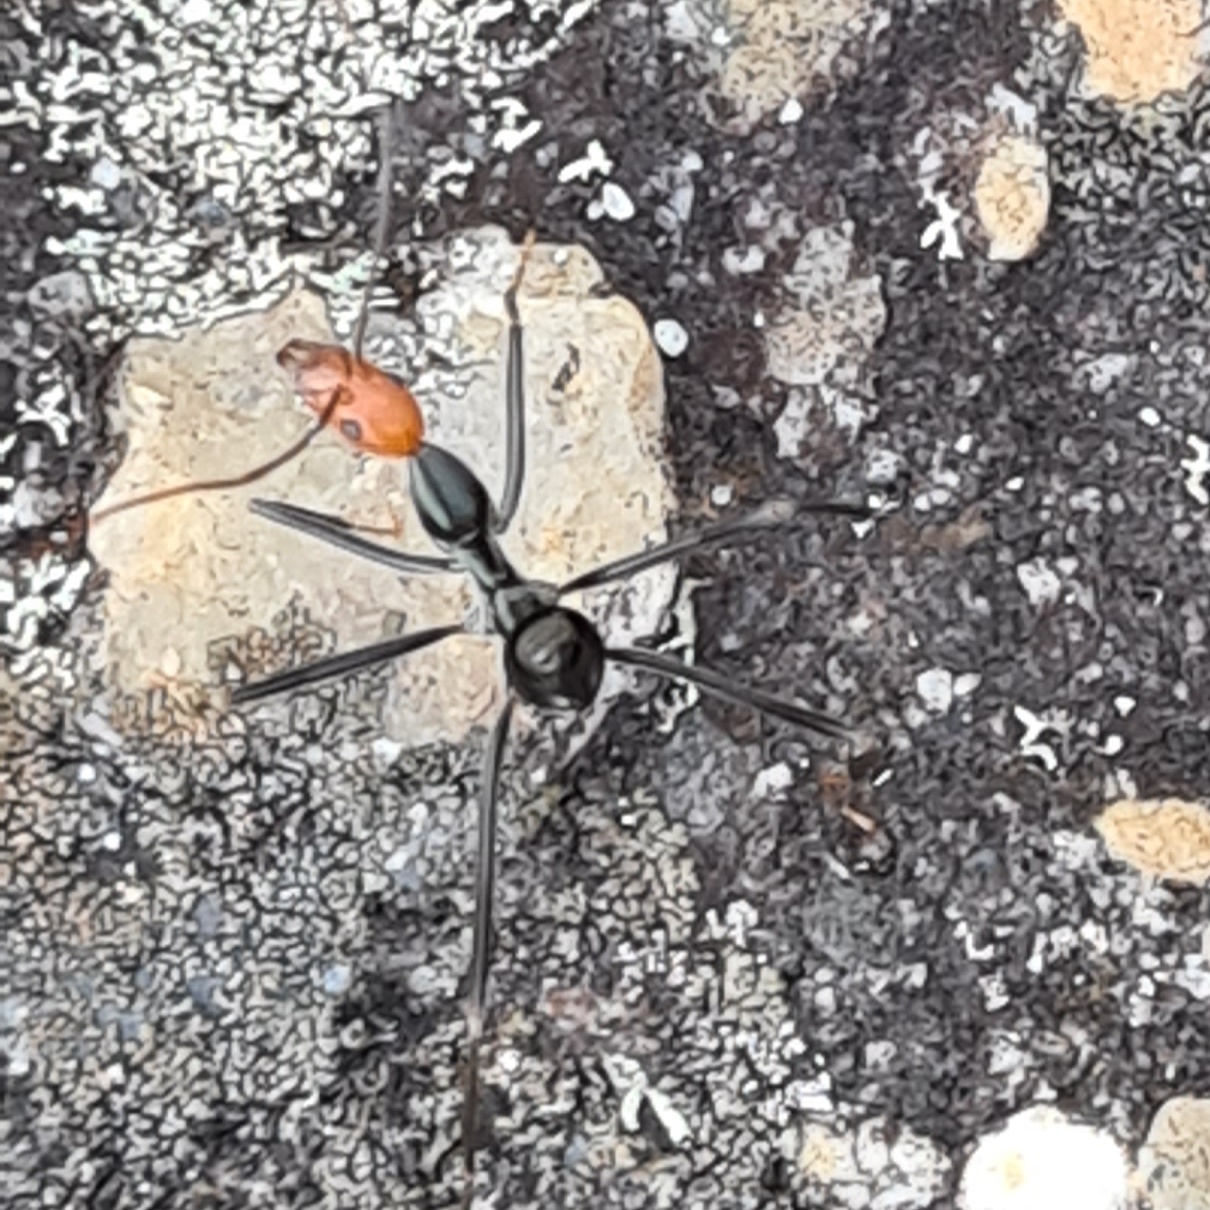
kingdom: Animalia
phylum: Arthropoda
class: Insecta
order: Hymenoptera
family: Formicidae
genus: Leptomyrmex
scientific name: Leptomyrmex erythrocephalus
